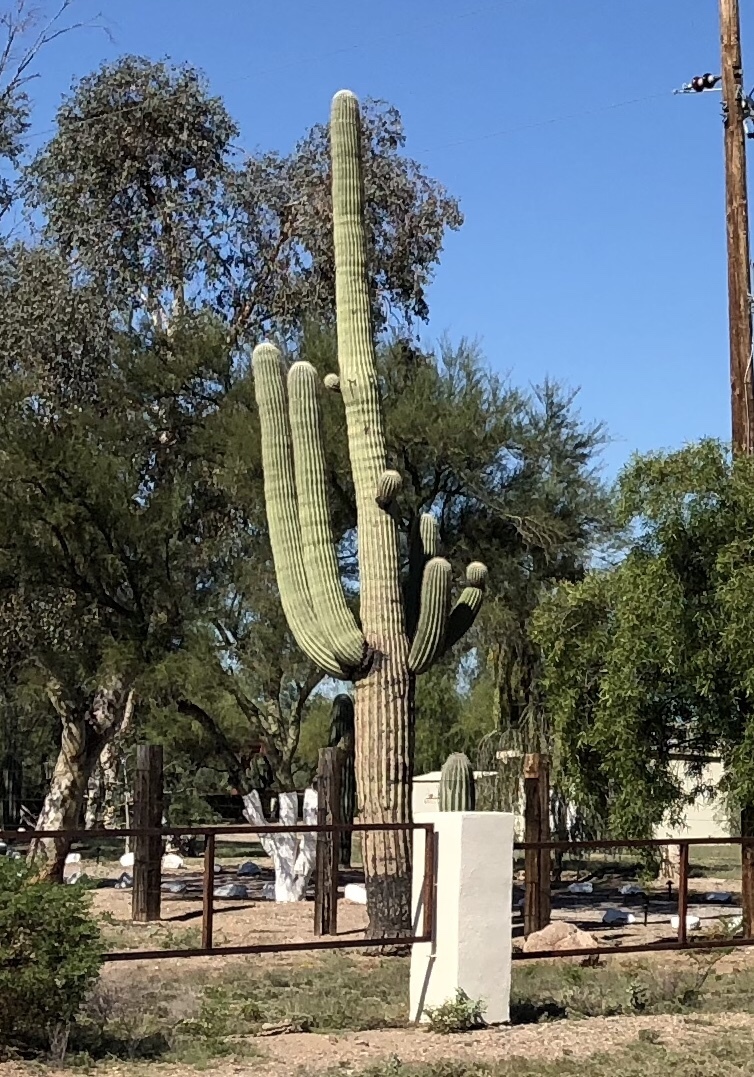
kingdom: Plantae
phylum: Tracheophyta
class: Magnoliopsida
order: Caryophyllales
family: Cactaceae
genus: Carnegiea
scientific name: Carnegiea gigantea
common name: Saguaro
